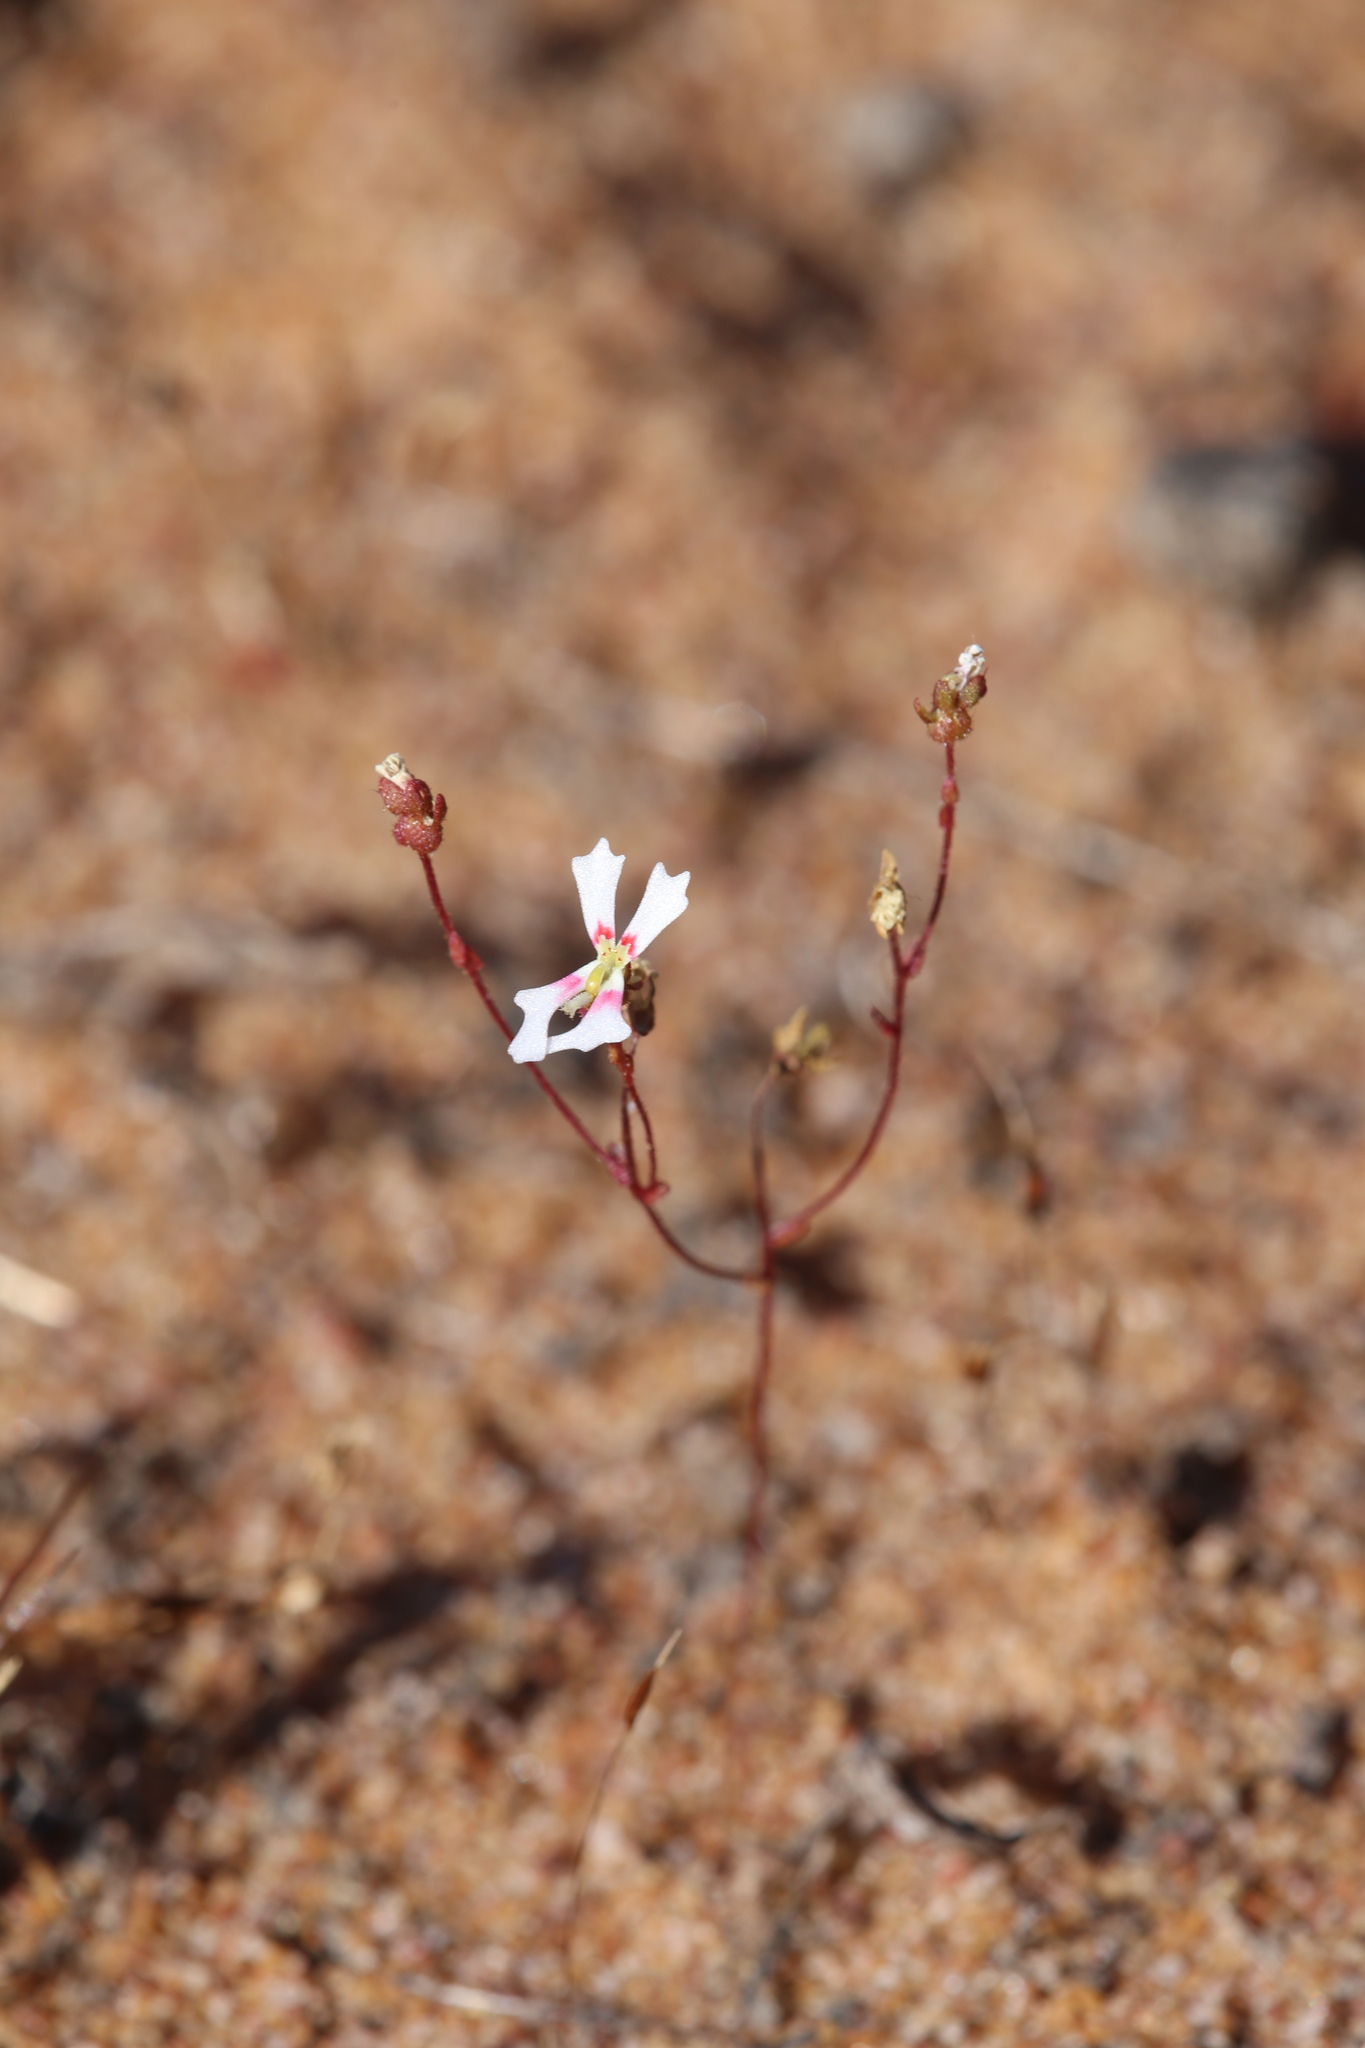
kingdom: Plantae
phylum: Tracheophyta
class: Magnoliopsida
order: Asterales
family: Stylidiaceae
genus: Stylidium
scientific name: Stylidium ecorne
